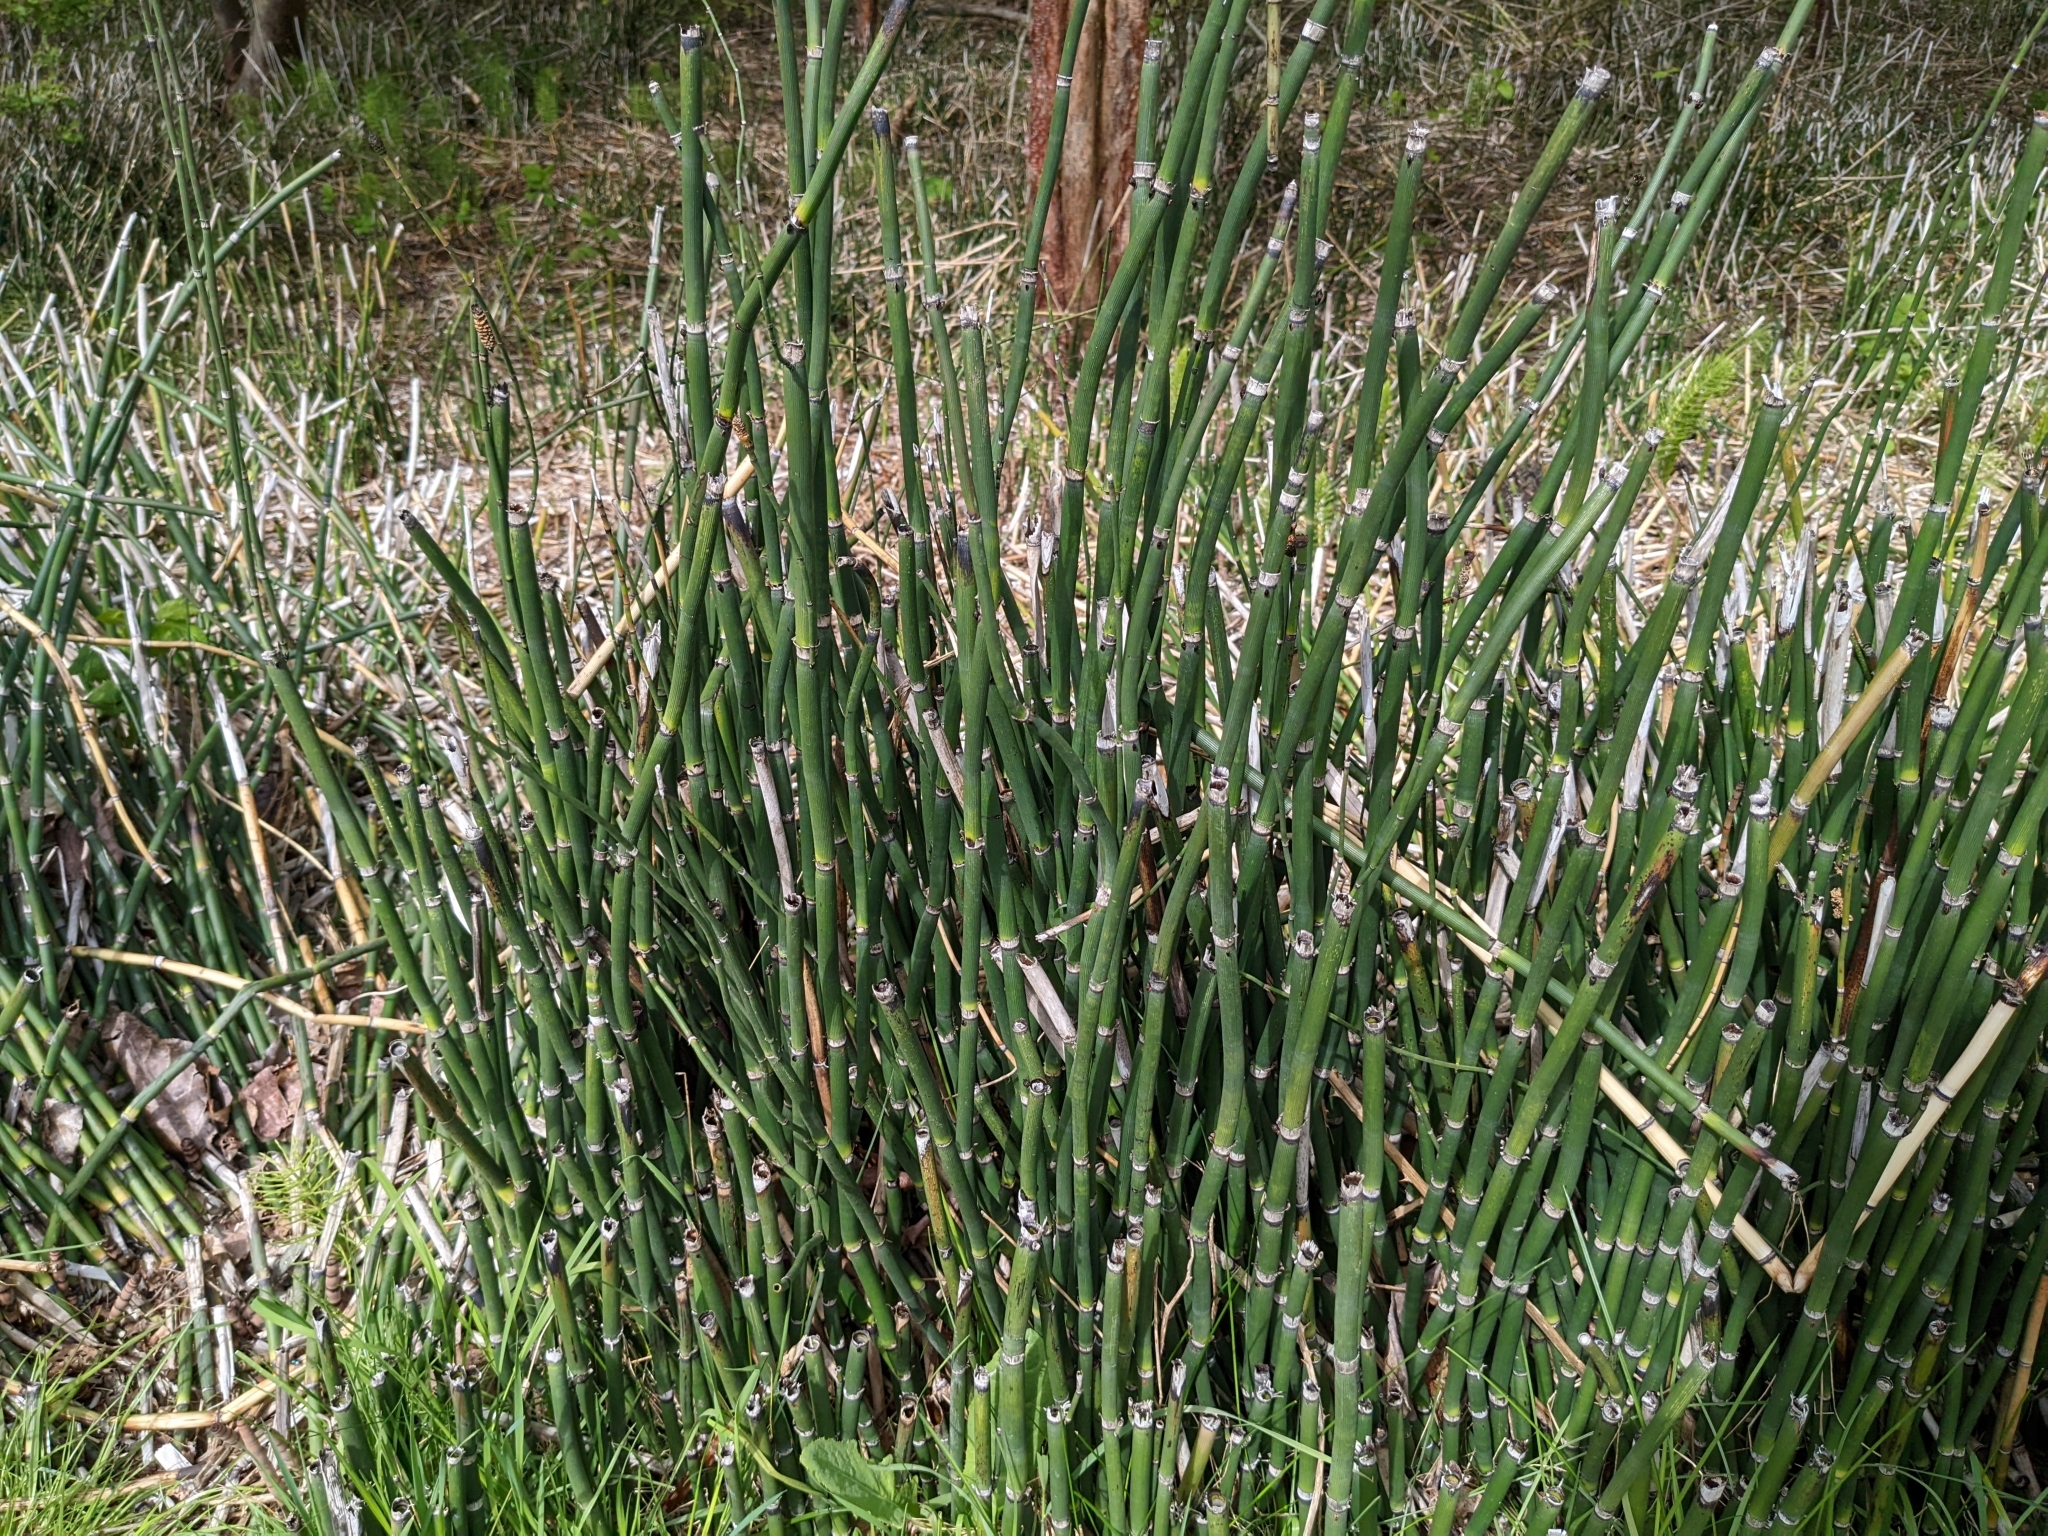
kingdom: Plantae
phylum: Tracheophyta
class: Polypodiopsida
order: Equisetales
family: Equisetaceae
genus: Equisetum
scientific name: Equisetum hyemale
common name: Rough horsetail
